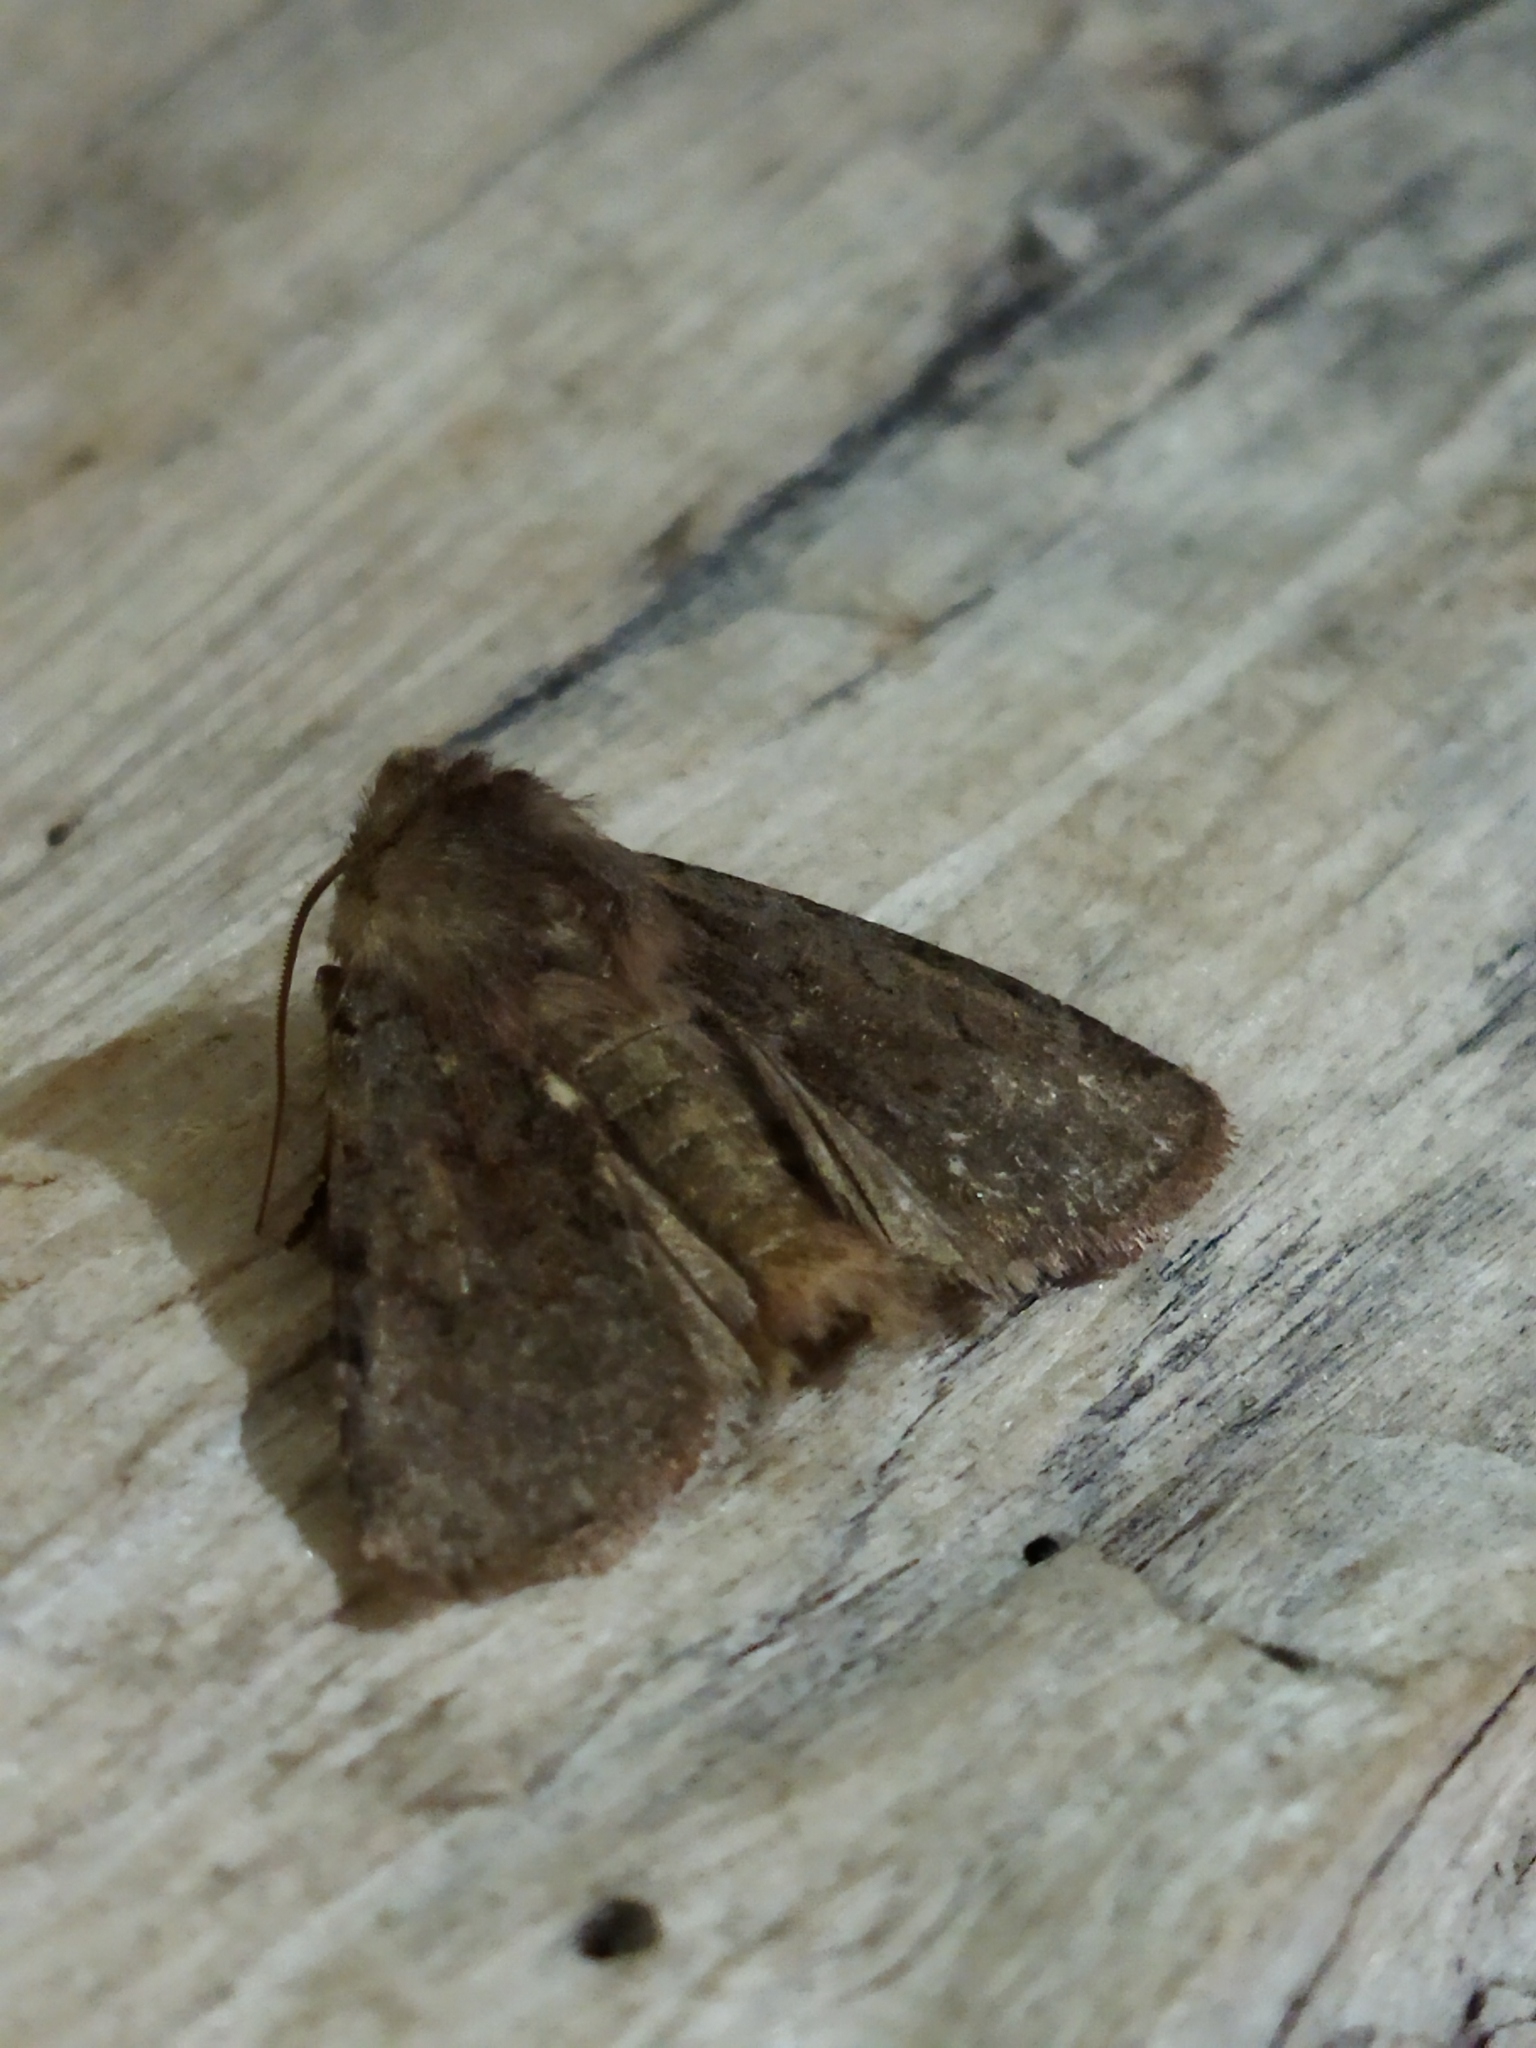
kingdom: Animalia
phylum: Arthropoda
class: Insecta
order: Lepidoptera
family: Noctuidae
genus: Cerastis
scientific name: Cerastis rubricosa
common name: Red chestnut
